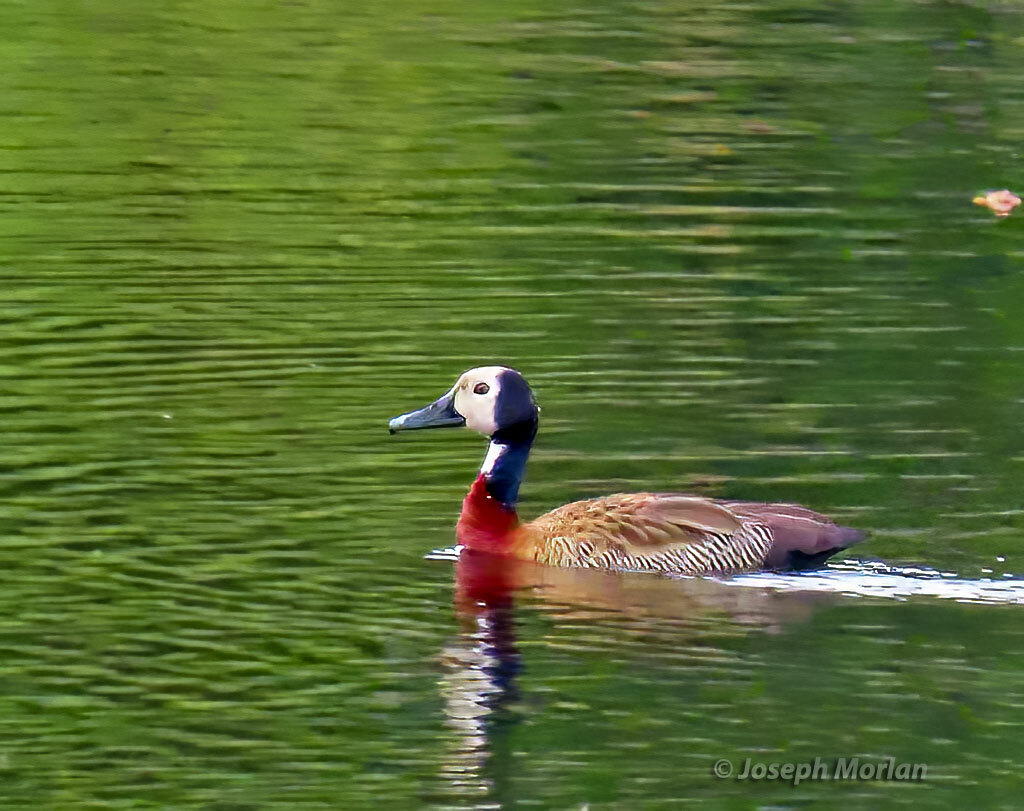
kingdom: Animalia
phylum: Chordata
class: Aves
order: Anseriformes
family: Anatidae
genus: Dendrocygna
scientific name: Dendrocygna viduata
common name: White-faced whistling duck
